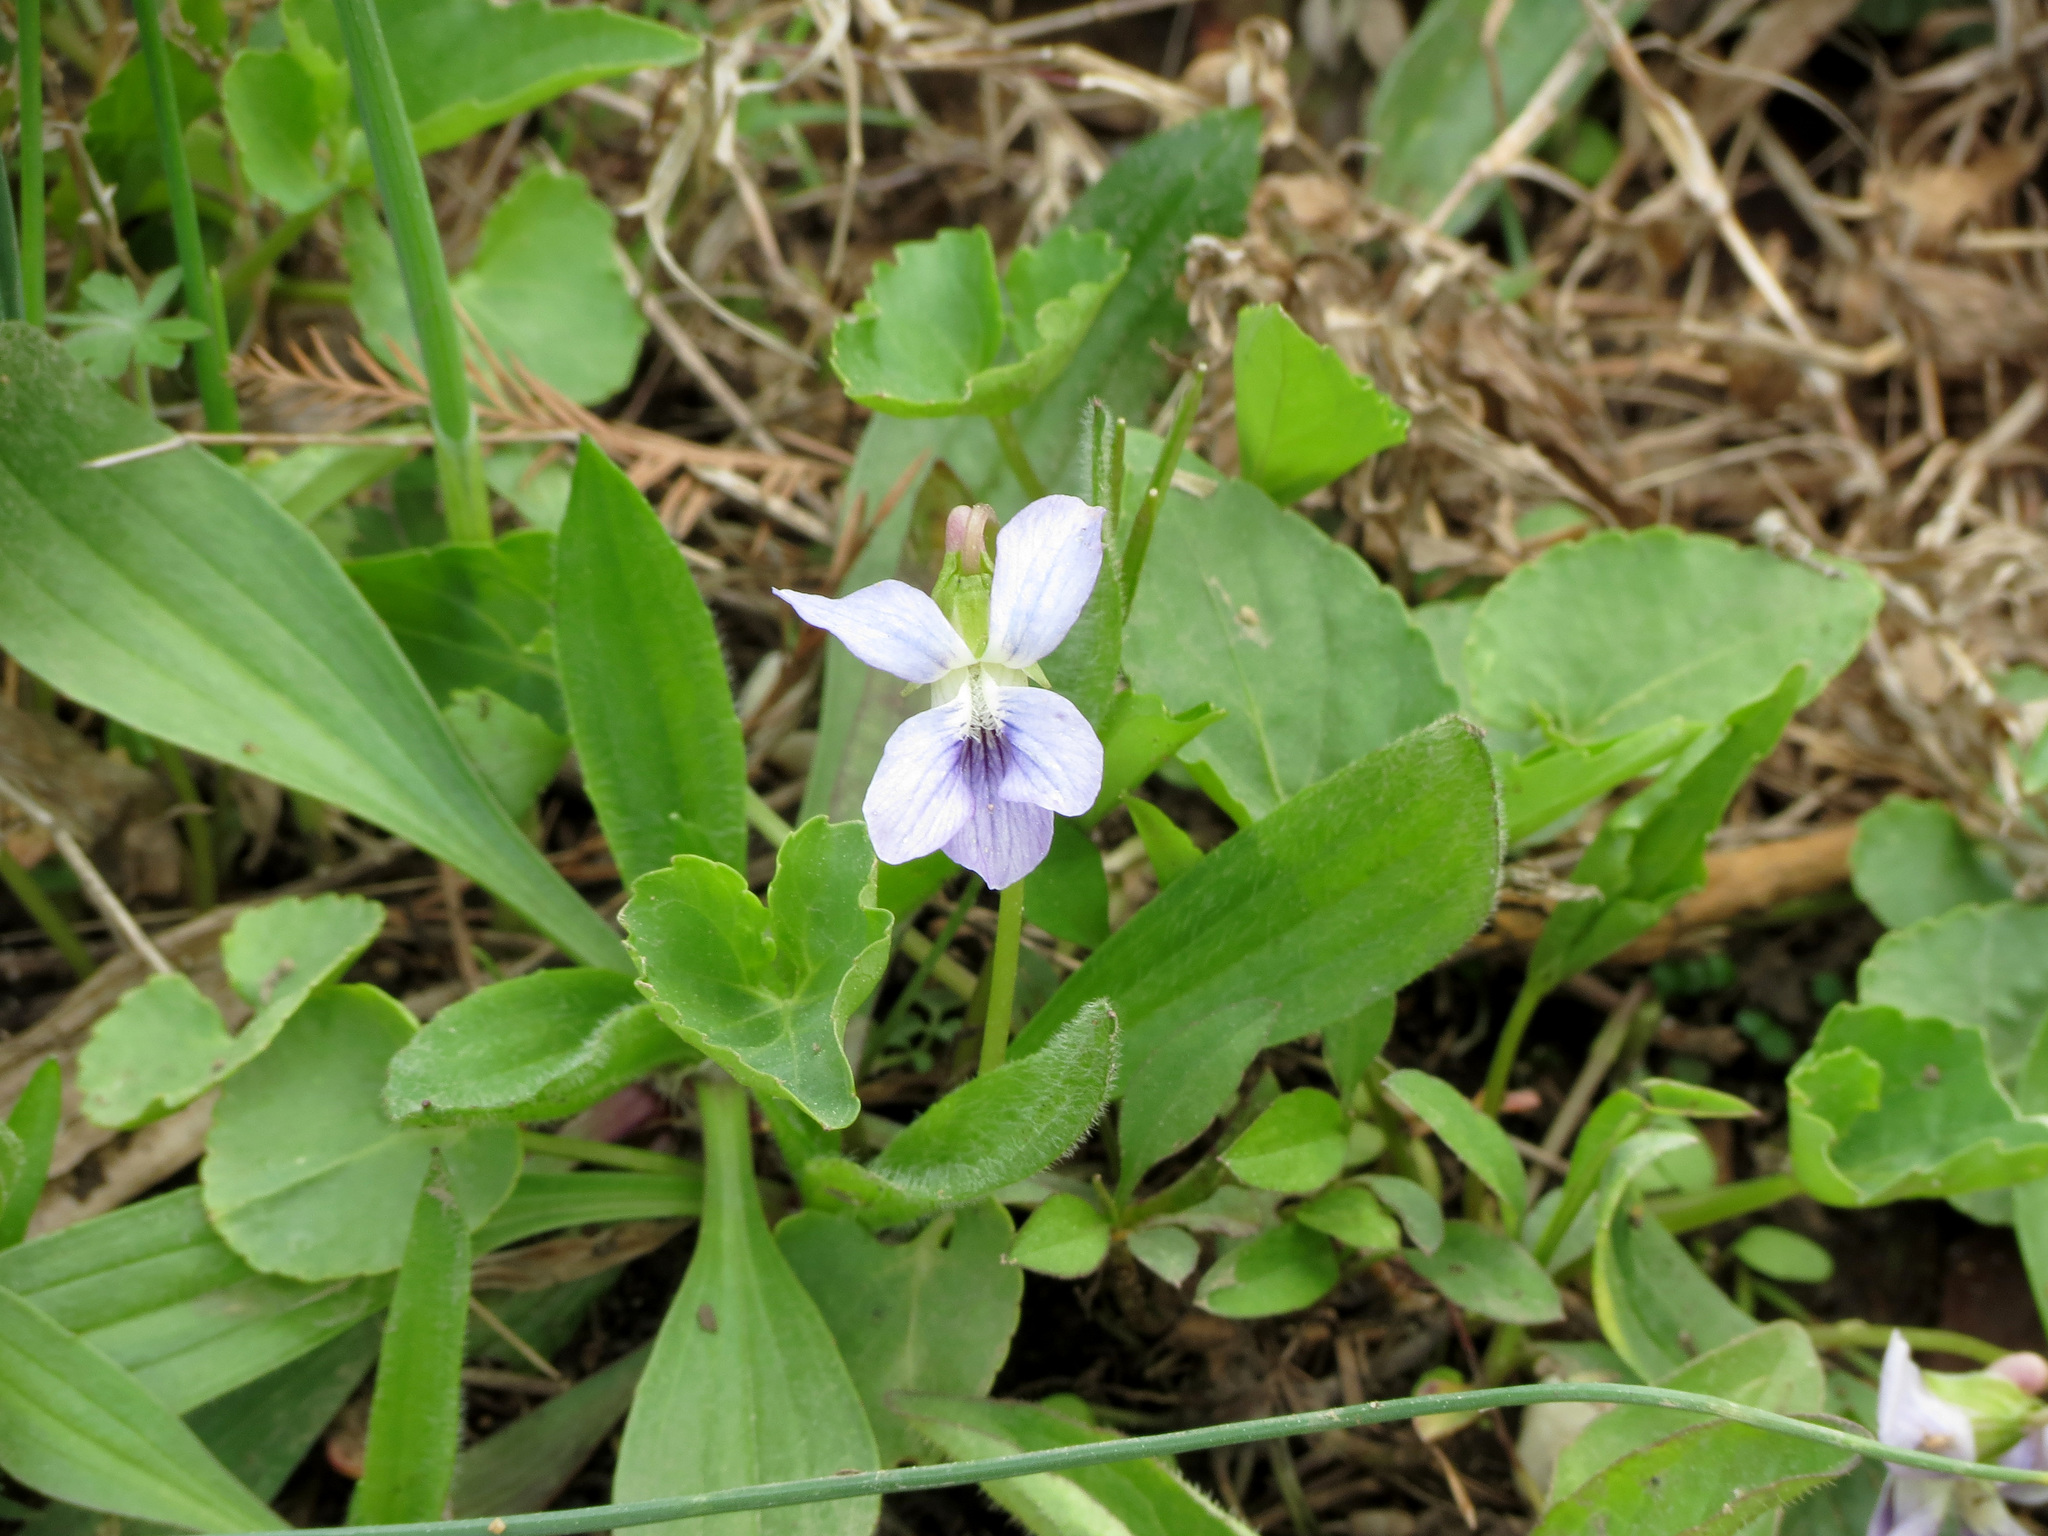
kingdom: Plantae
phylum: Tracheophyta
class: Magnoliopsida
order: Malpighiales
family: Violaceae
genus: Viola
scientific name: Viola sororia
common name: Dooryard violet
